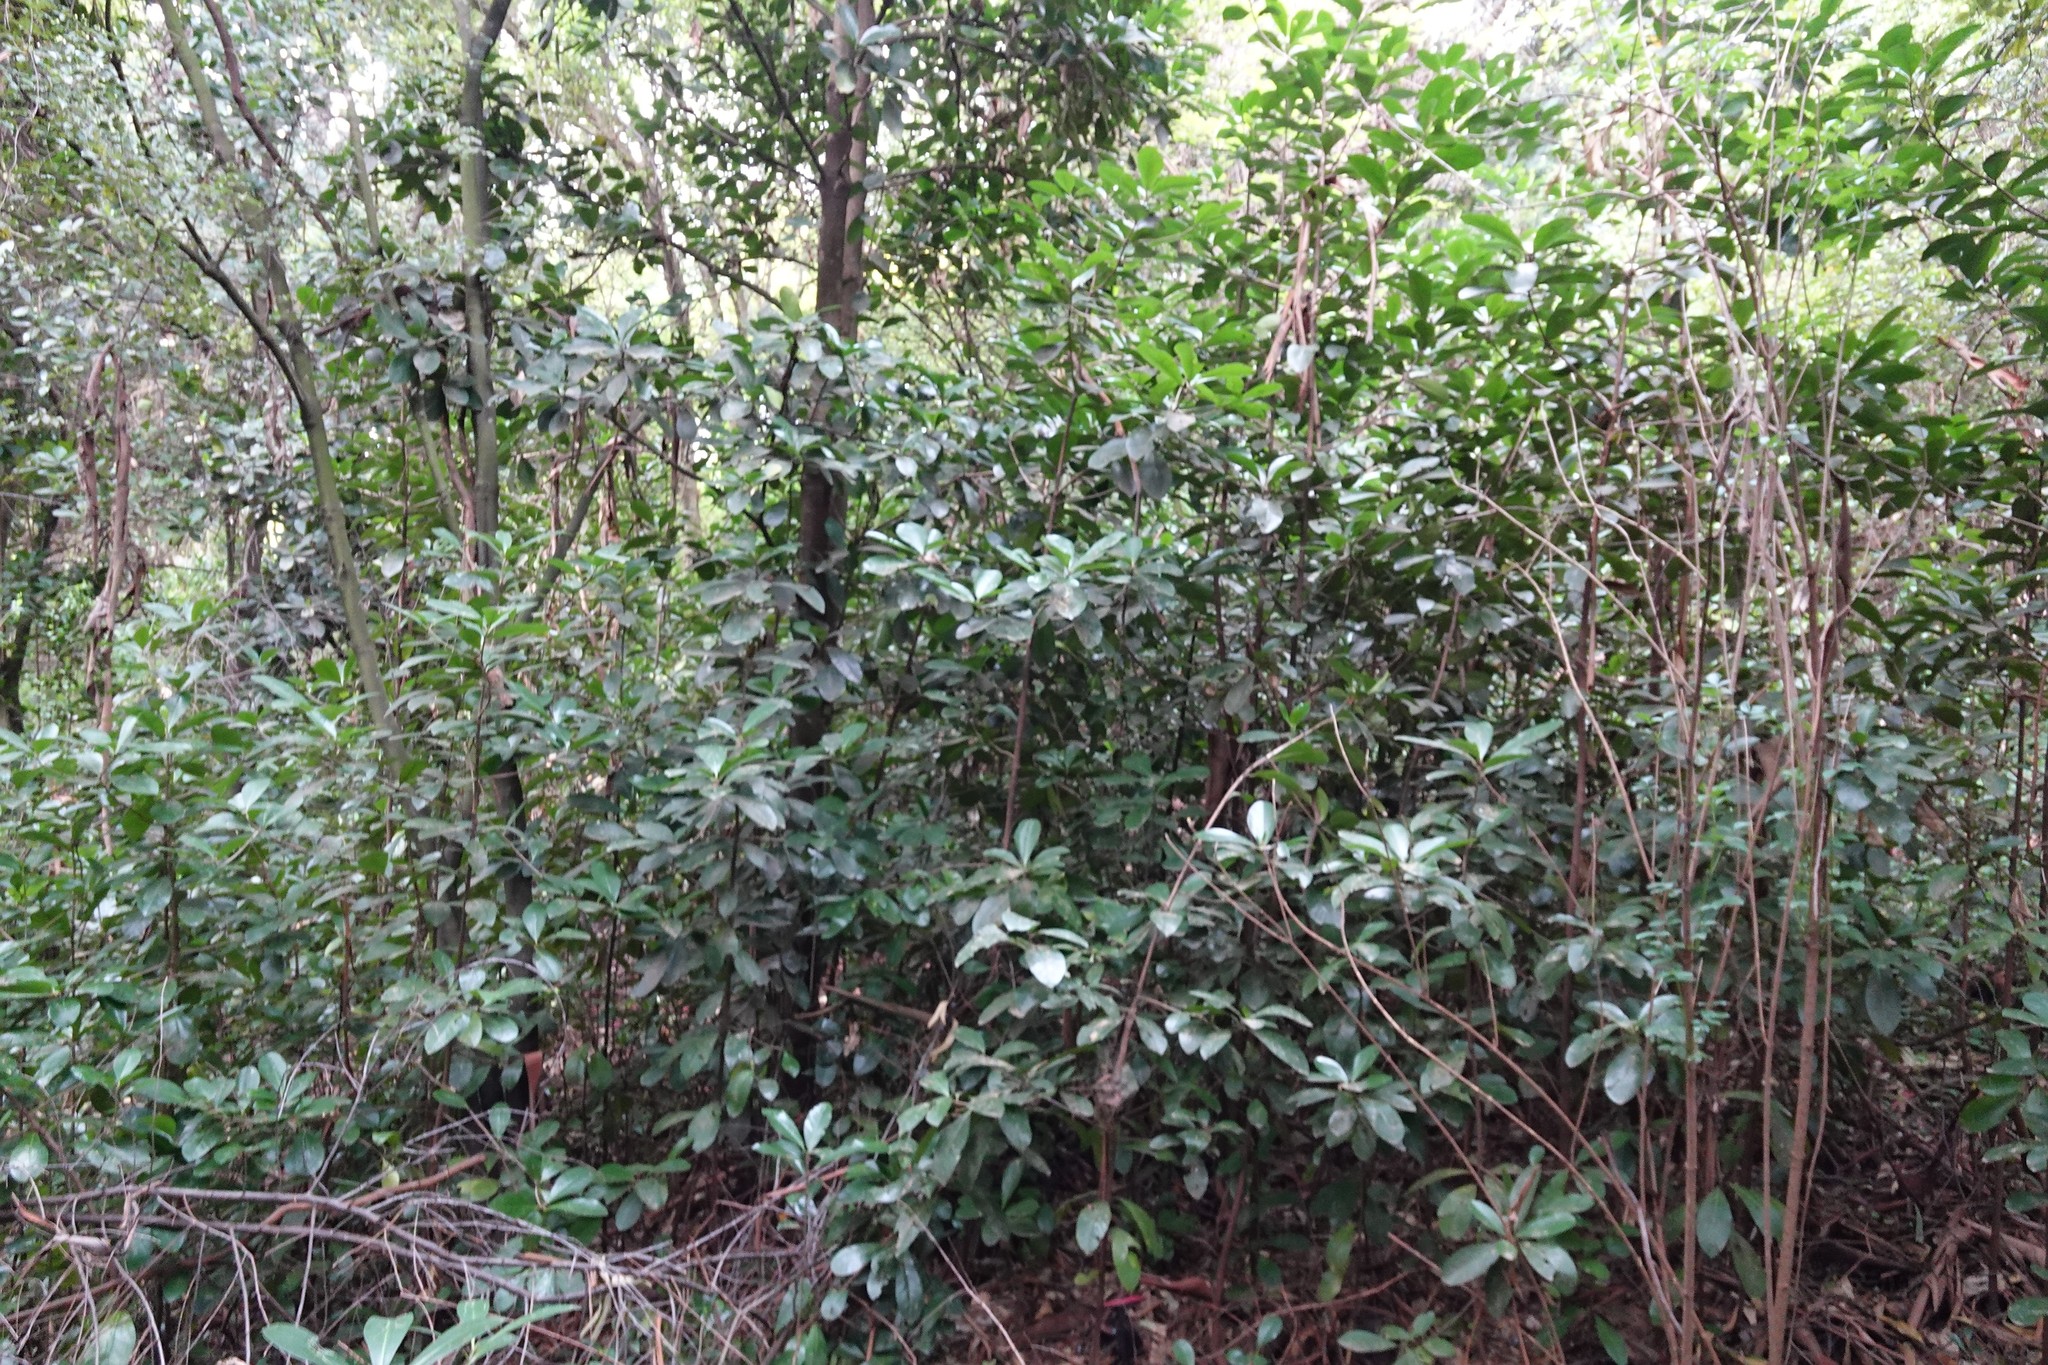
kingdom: Plantae
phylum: Tracheophyta
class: Magnoliopsida
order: Cucurbitales
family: Corynocarpaceae
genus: Corynocarpus
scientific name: Corynocarpus laevigatus
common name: New zealand laurel
